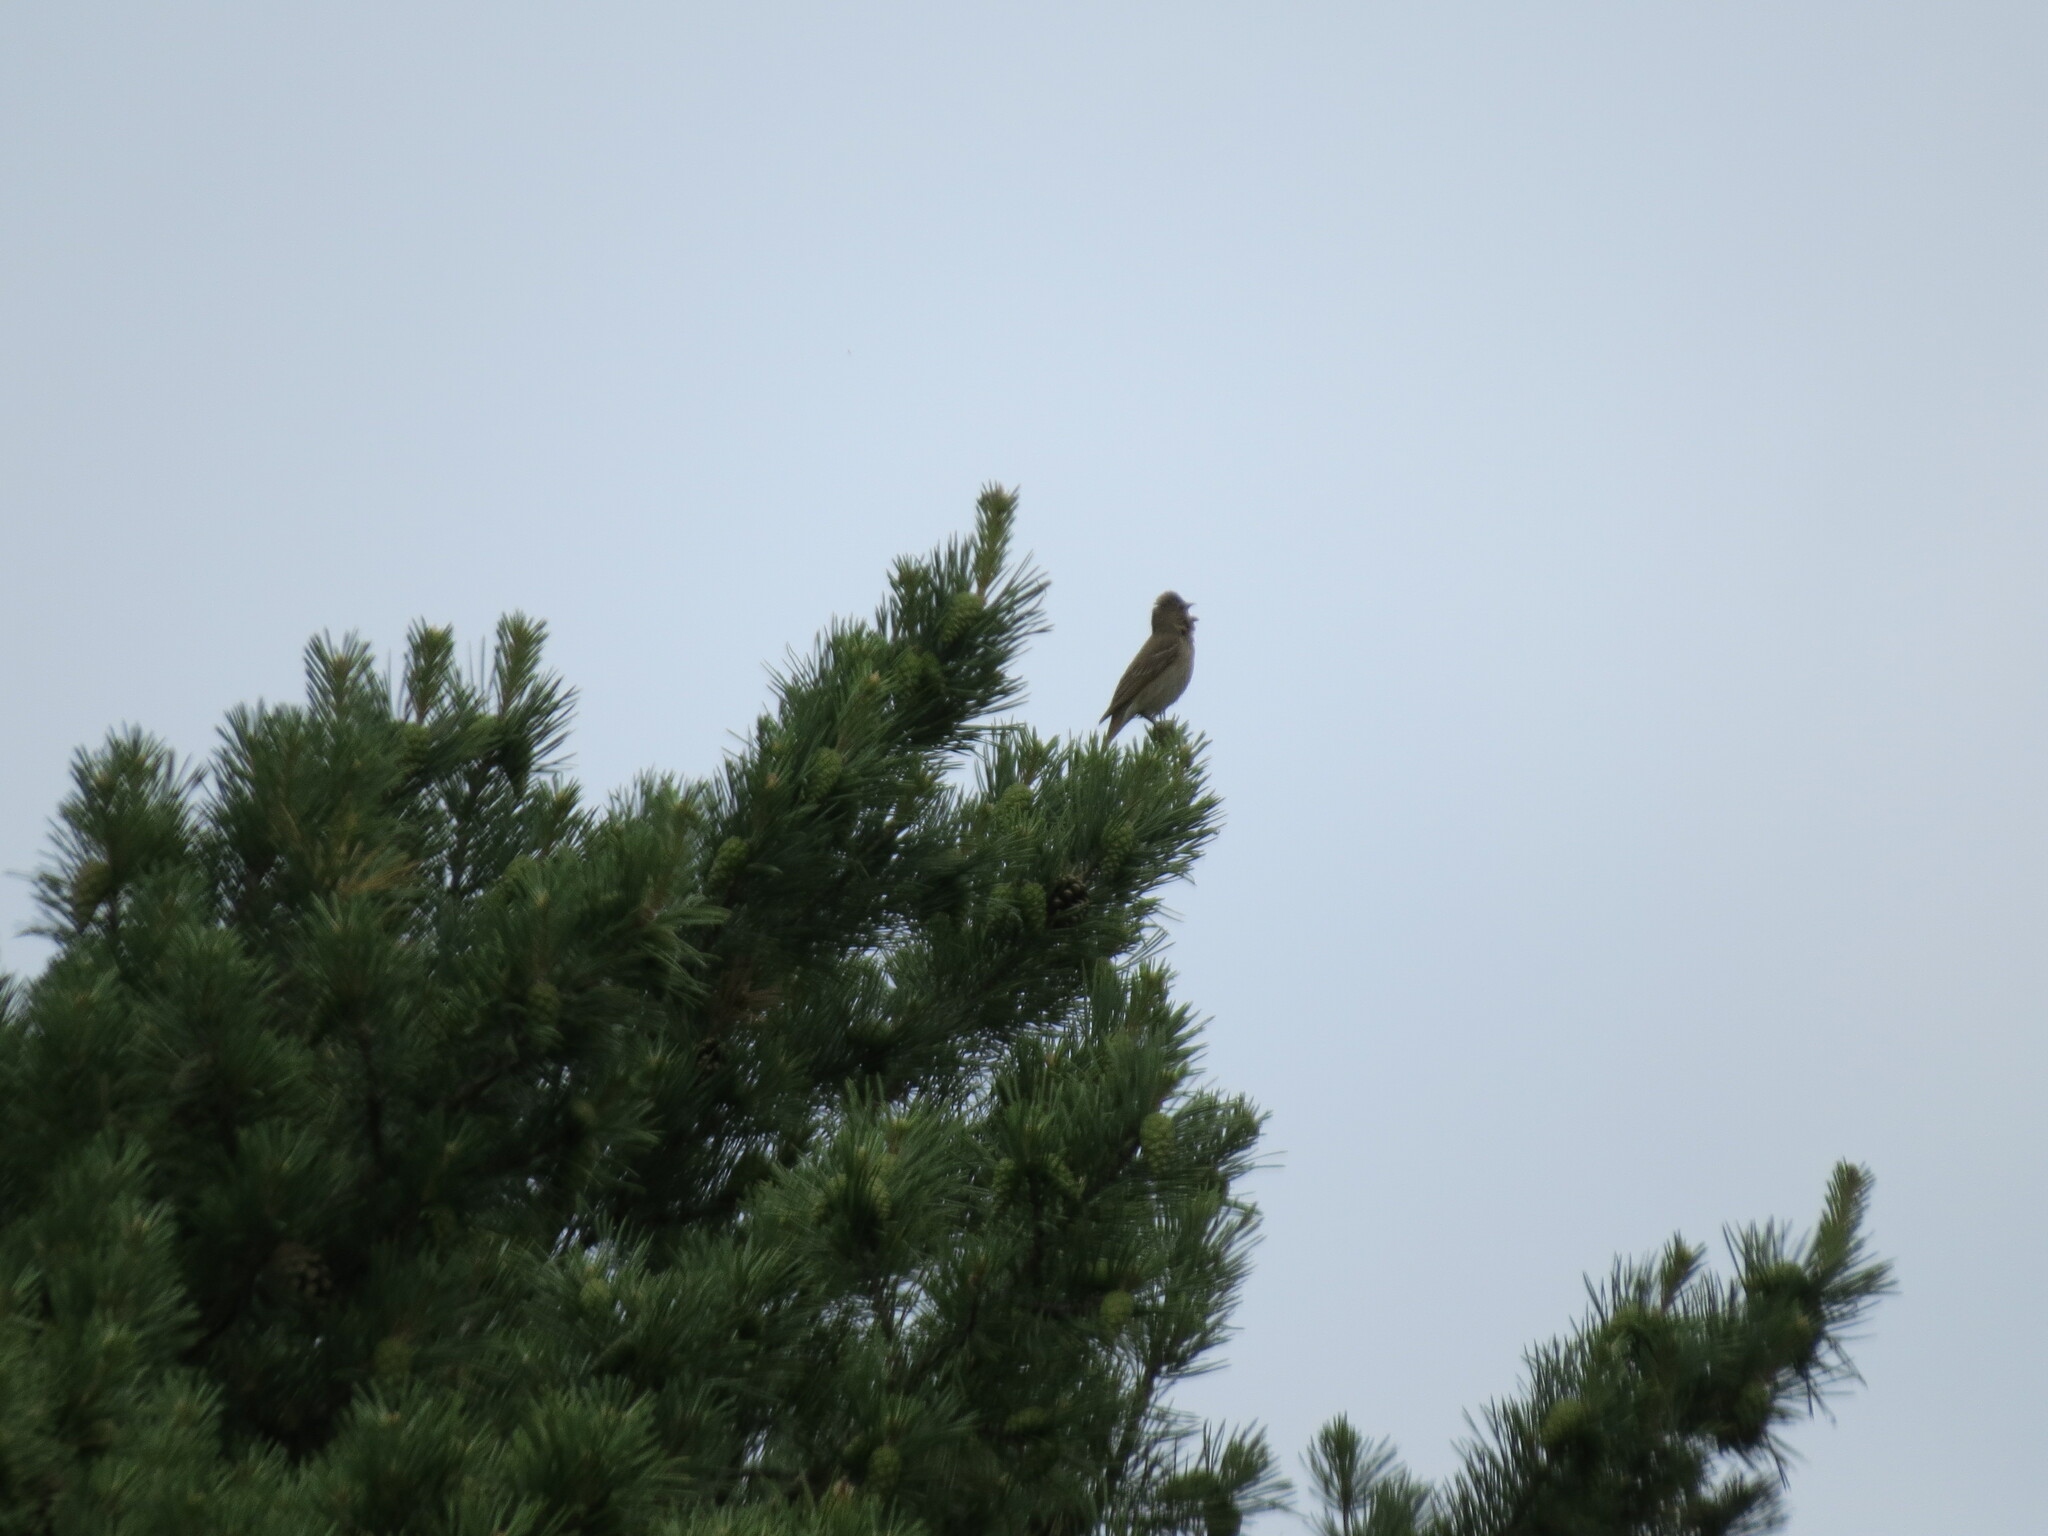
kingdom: Animalia
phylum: Chordata
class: Aves
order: Passeriformes
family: Fringillidae
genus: Carpodacus
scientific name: Carpodacus erythrinus
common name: Common rosefinch
